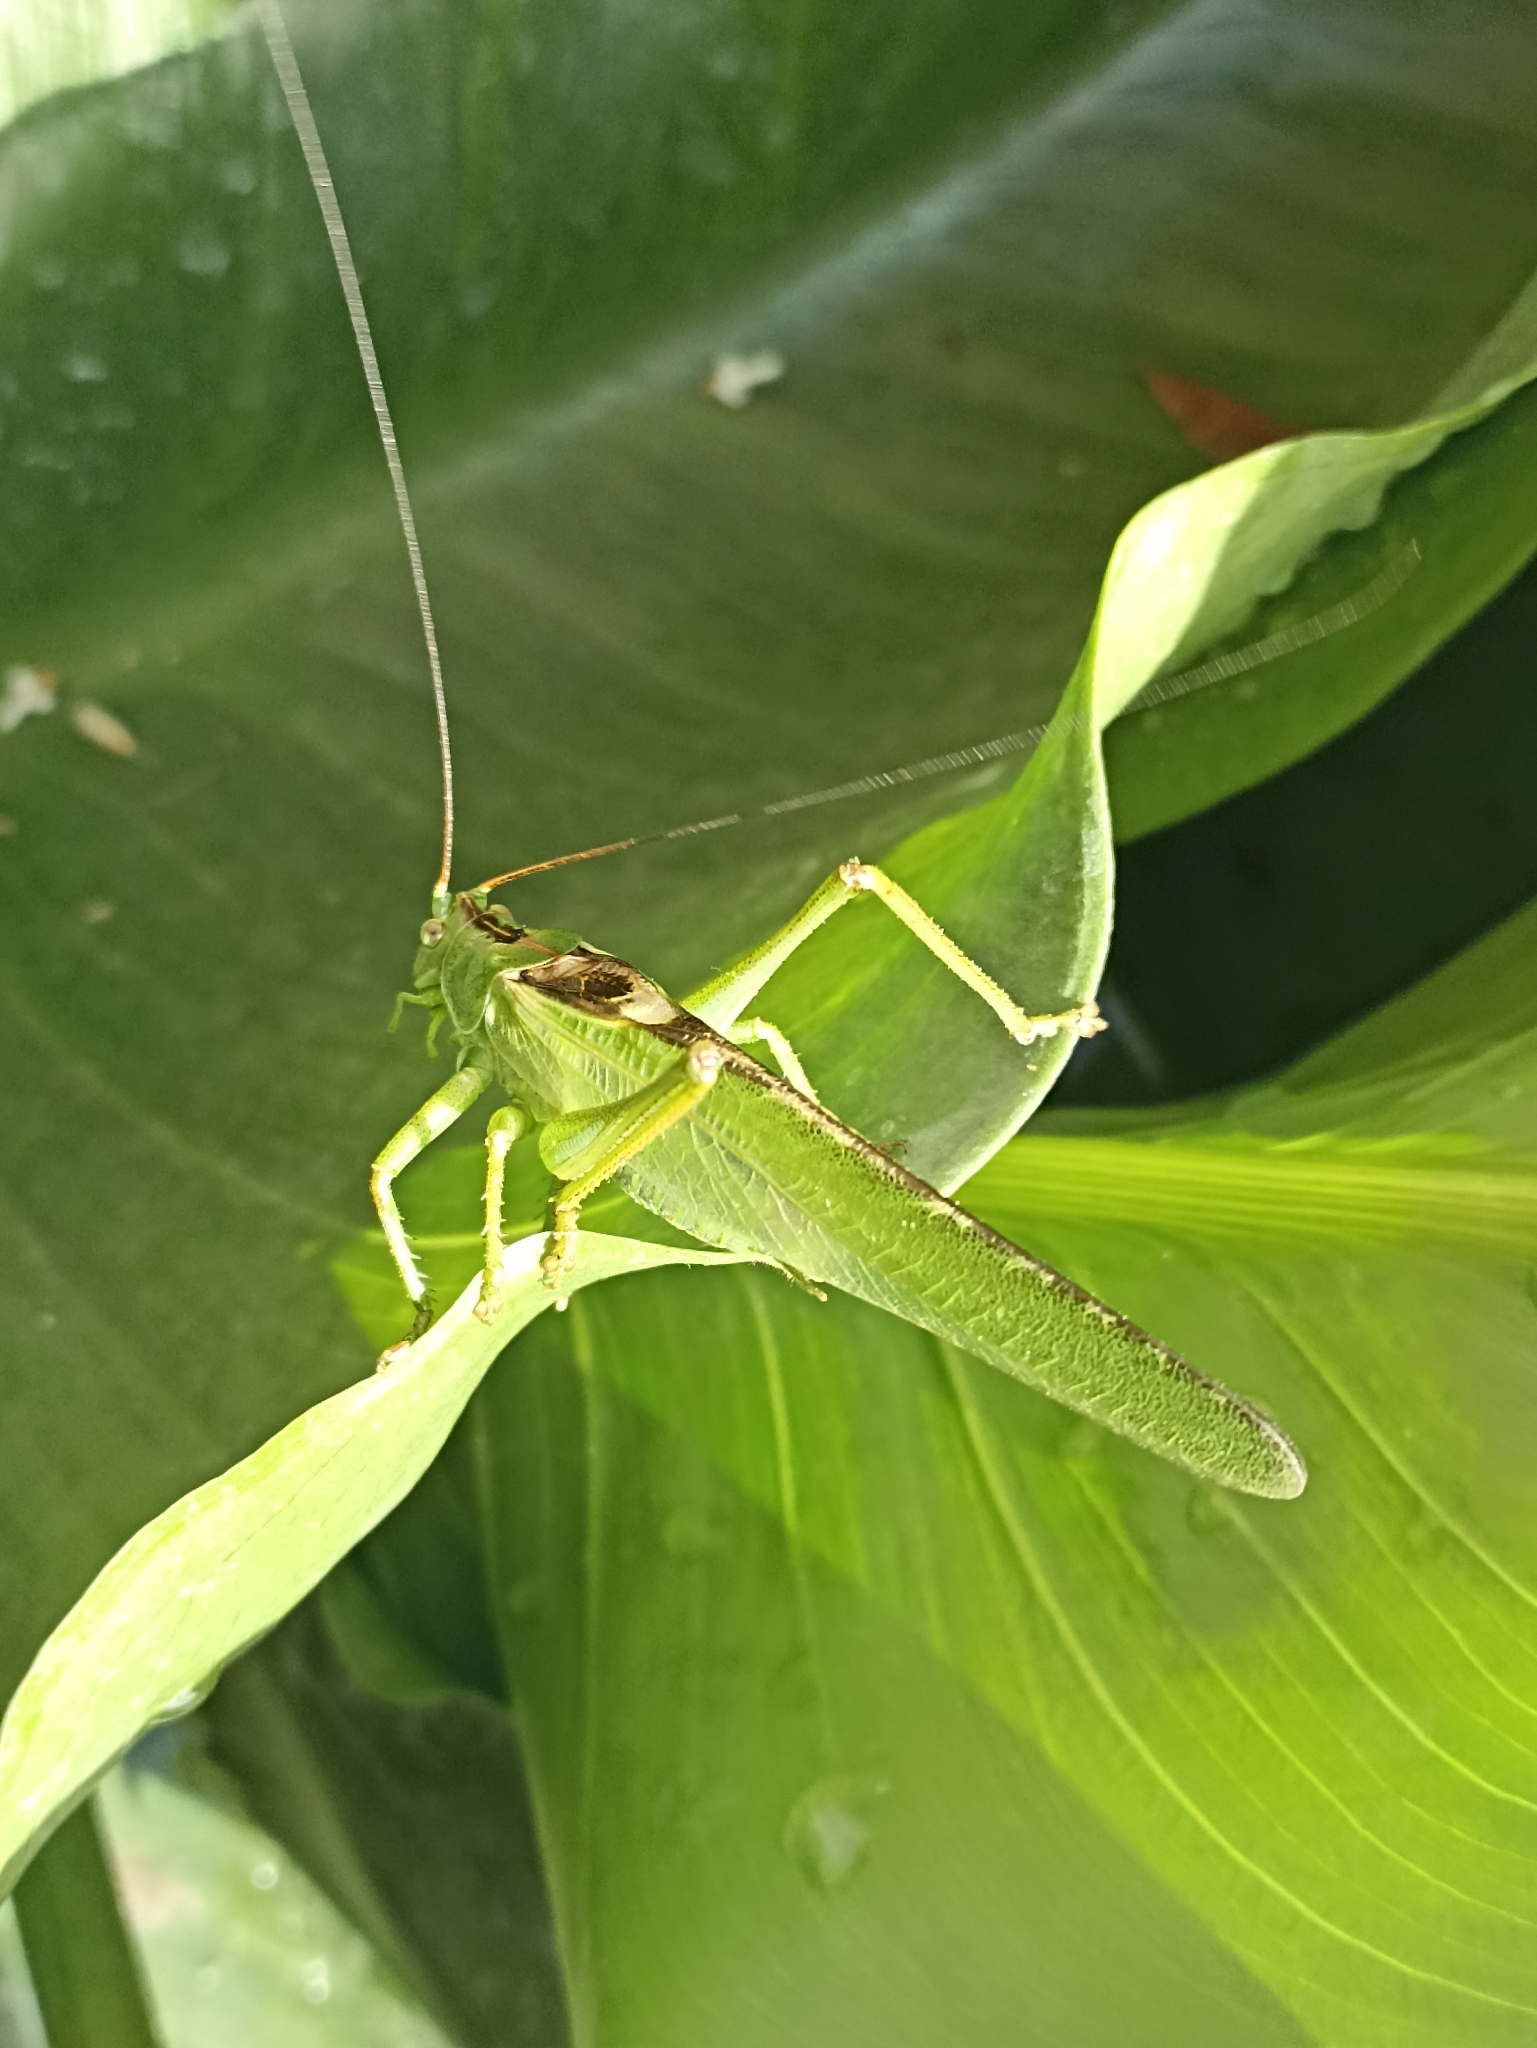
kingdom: Animalia
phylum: Arthropoda
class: Insecta
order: Orthoptera
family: Tettigoniidae
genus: Tettigonia
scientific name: Tettigonia viridissima
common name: Great green bush-cricket
